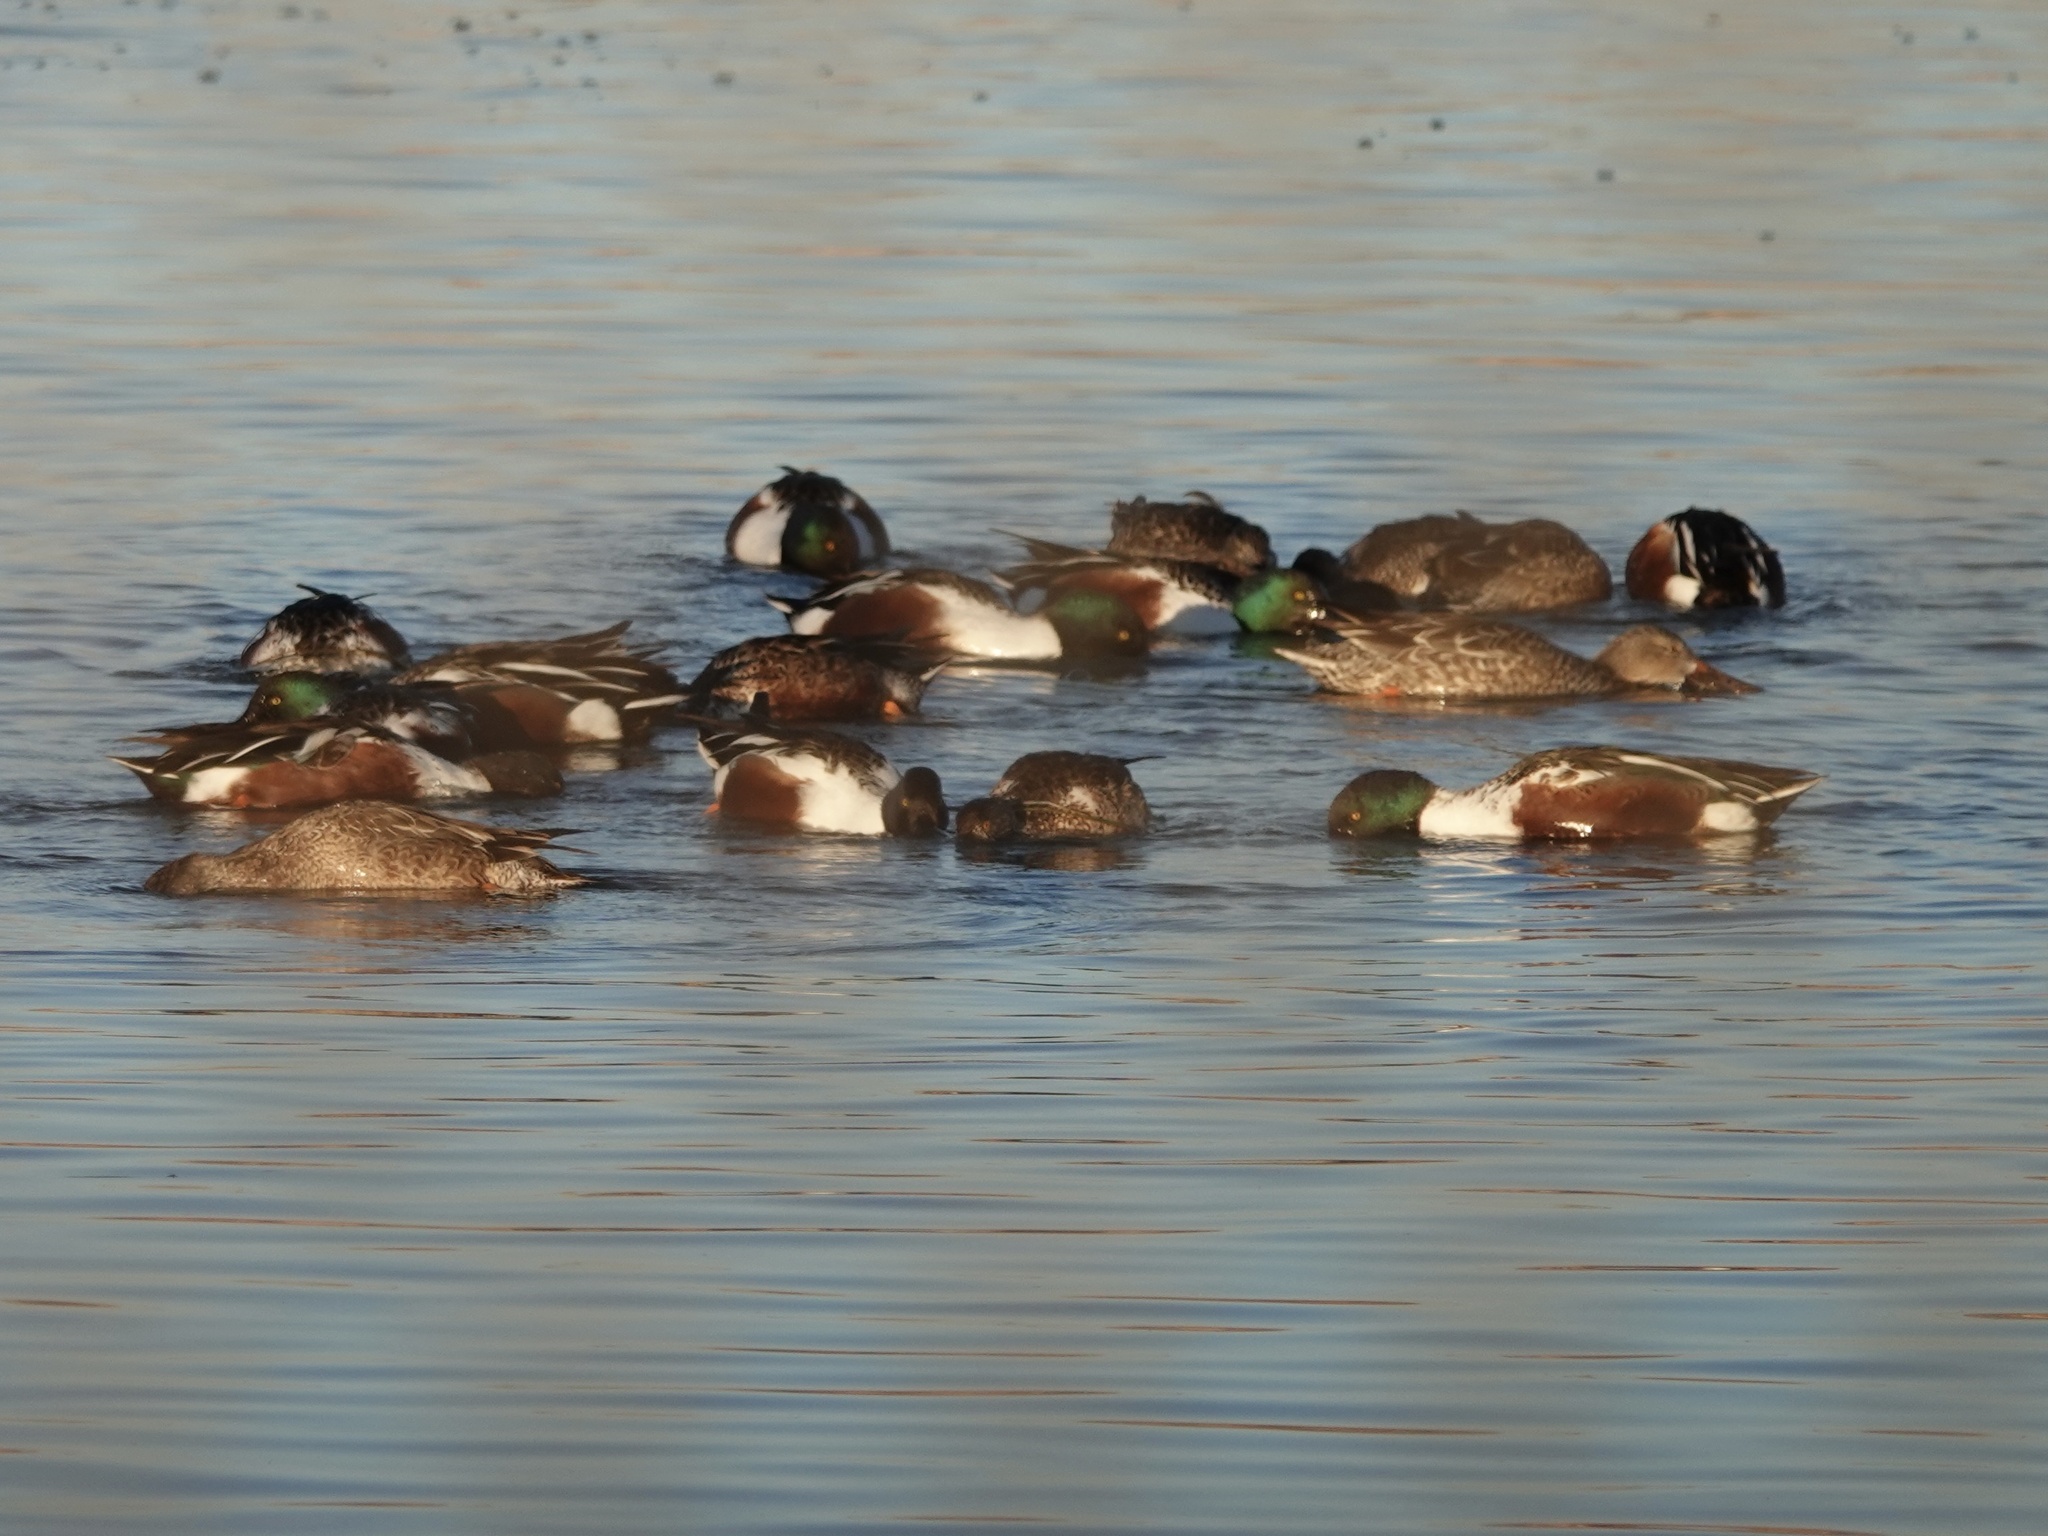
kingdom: Animalia
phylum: Chordata
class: Aves
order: Anseriformes
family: Anatidae
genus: Spatula
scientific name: Spatula clypeata
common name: Northern shoveler
